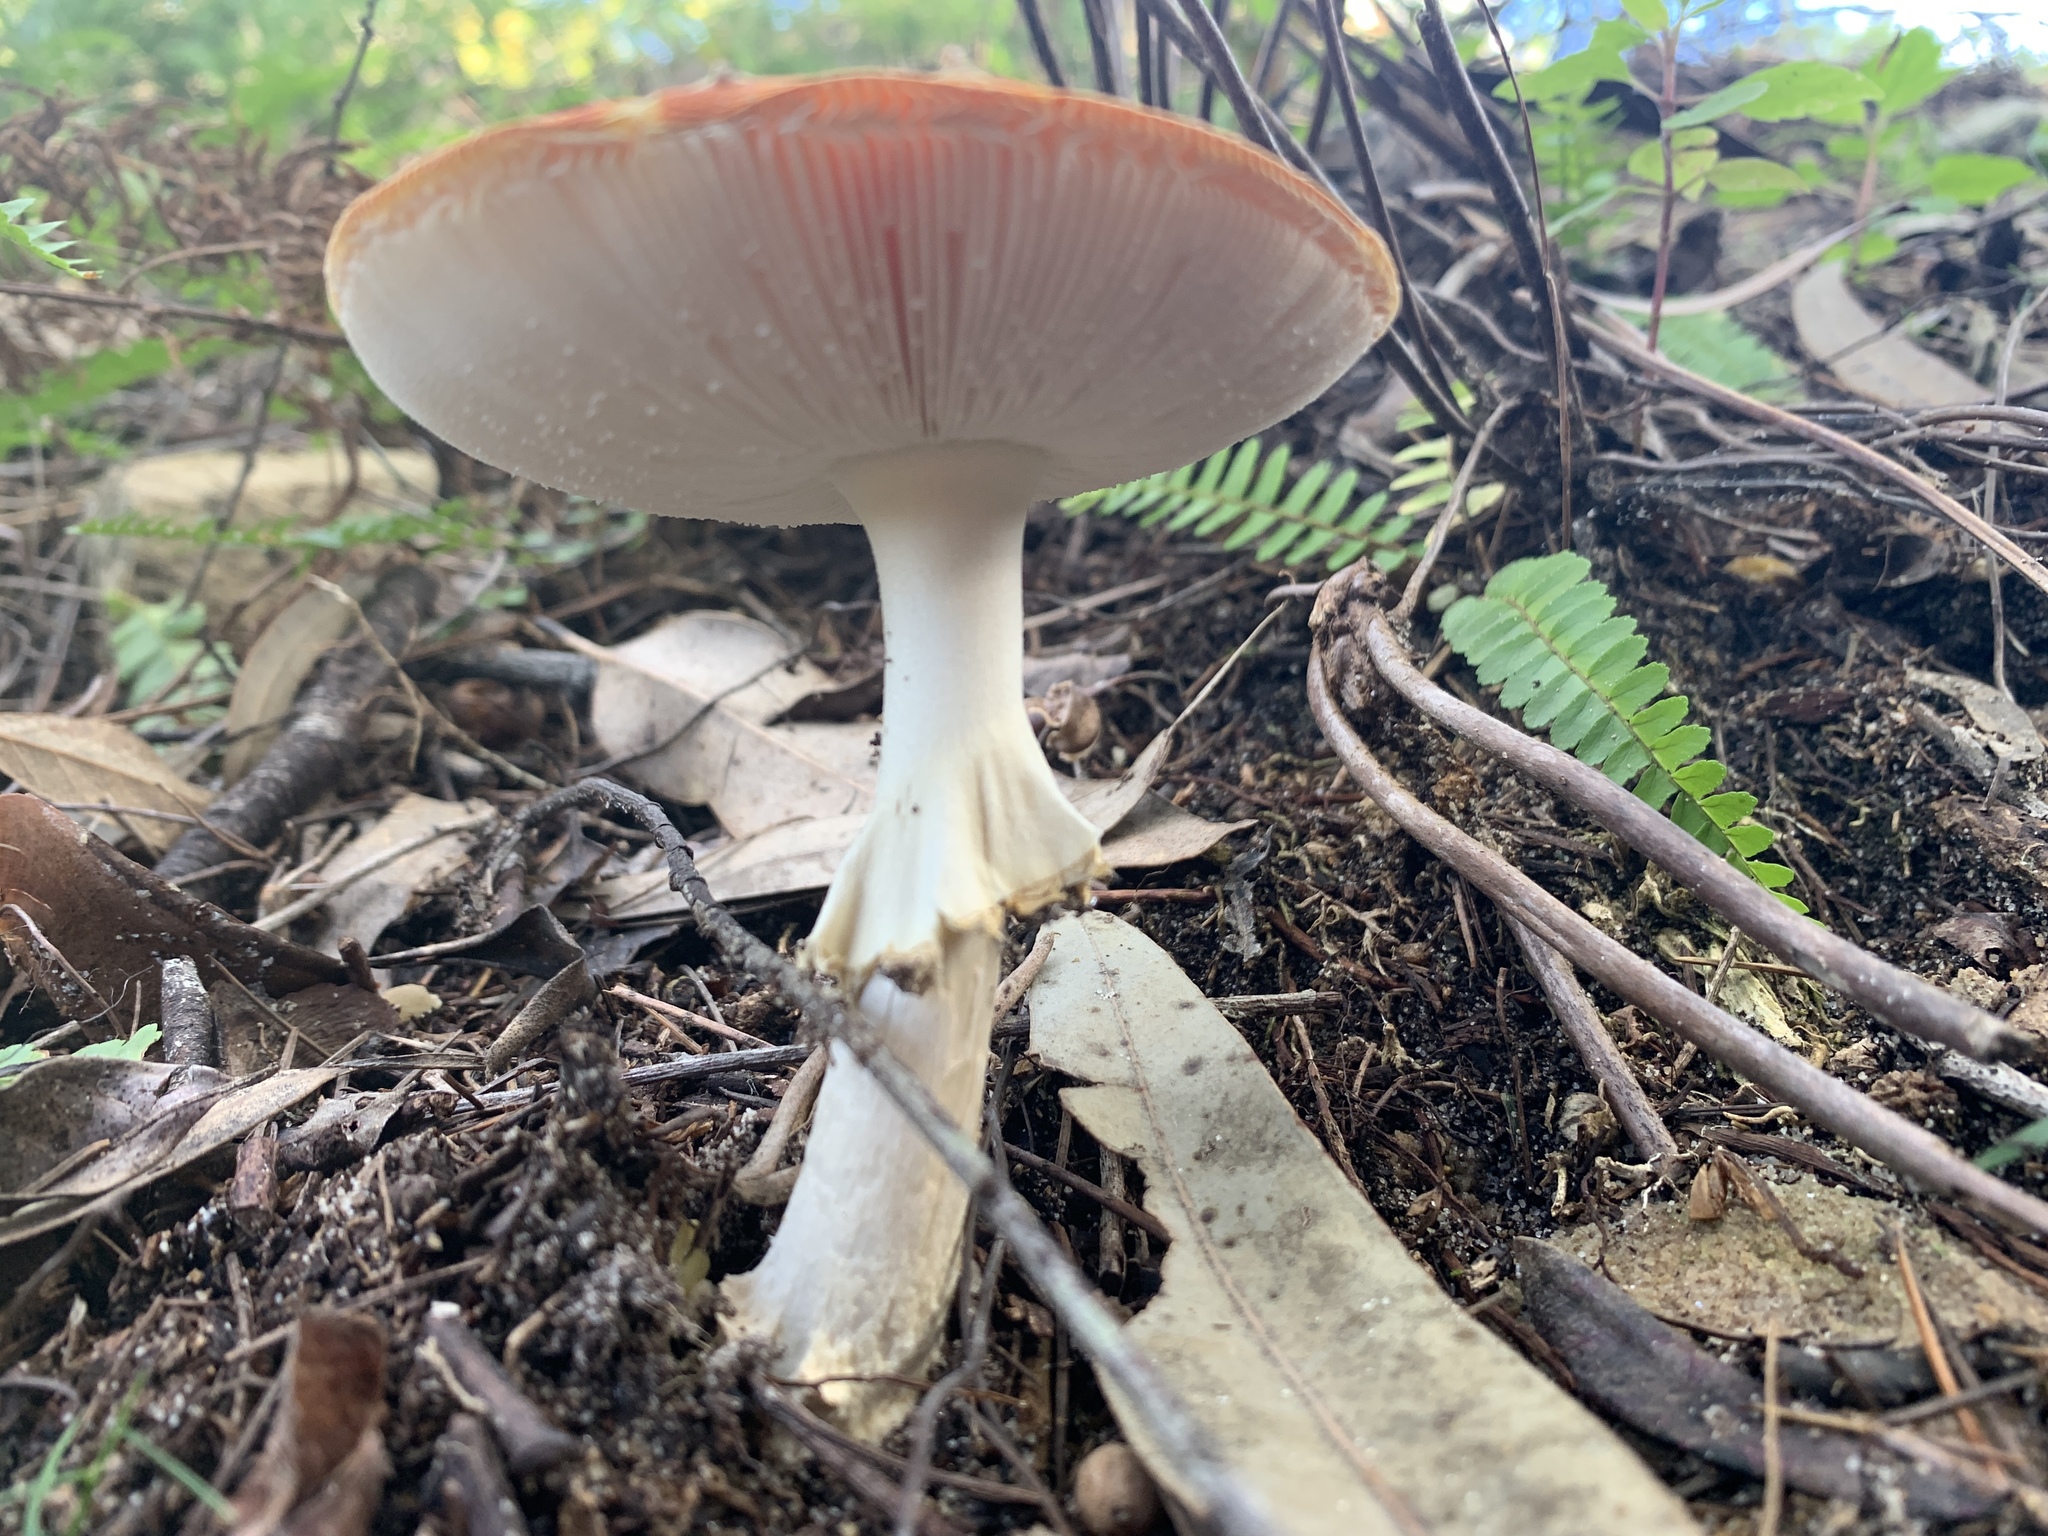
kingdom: Fungi
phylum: Basidiomycota
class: Agaricomycetes
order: Agaricales
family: Amanitaceae
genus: Amanita
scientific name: Amanita muscaria
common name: Fly agaric
